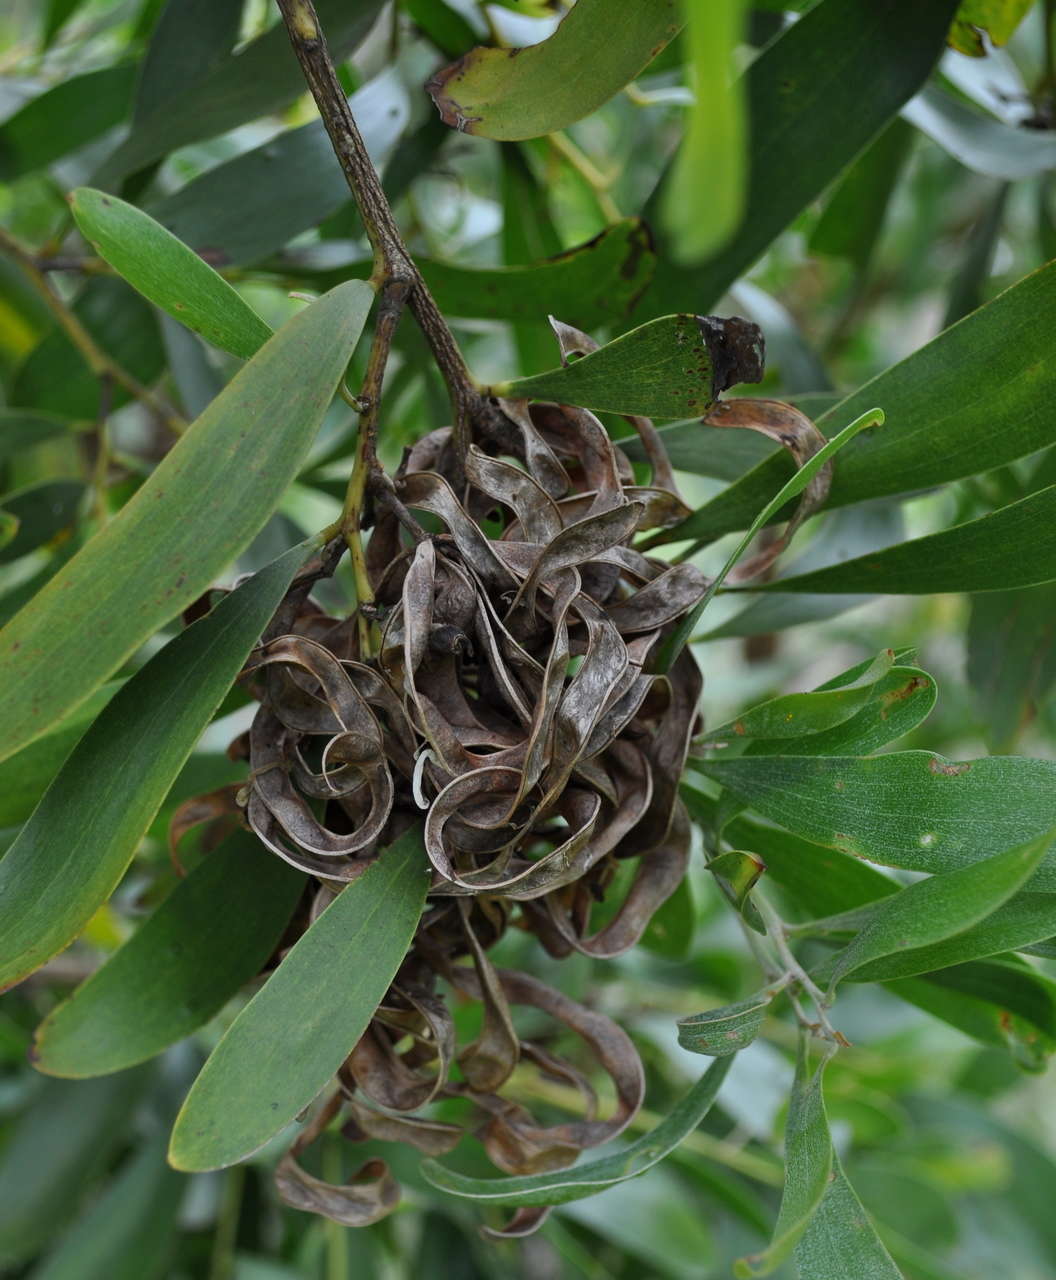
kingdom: Plantae
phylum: Tracheophyta
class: Magnoliopsida
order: Fabales
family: Fabaceae
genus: Acacia
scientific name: Acacia melanoxylon
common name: Blackwood
